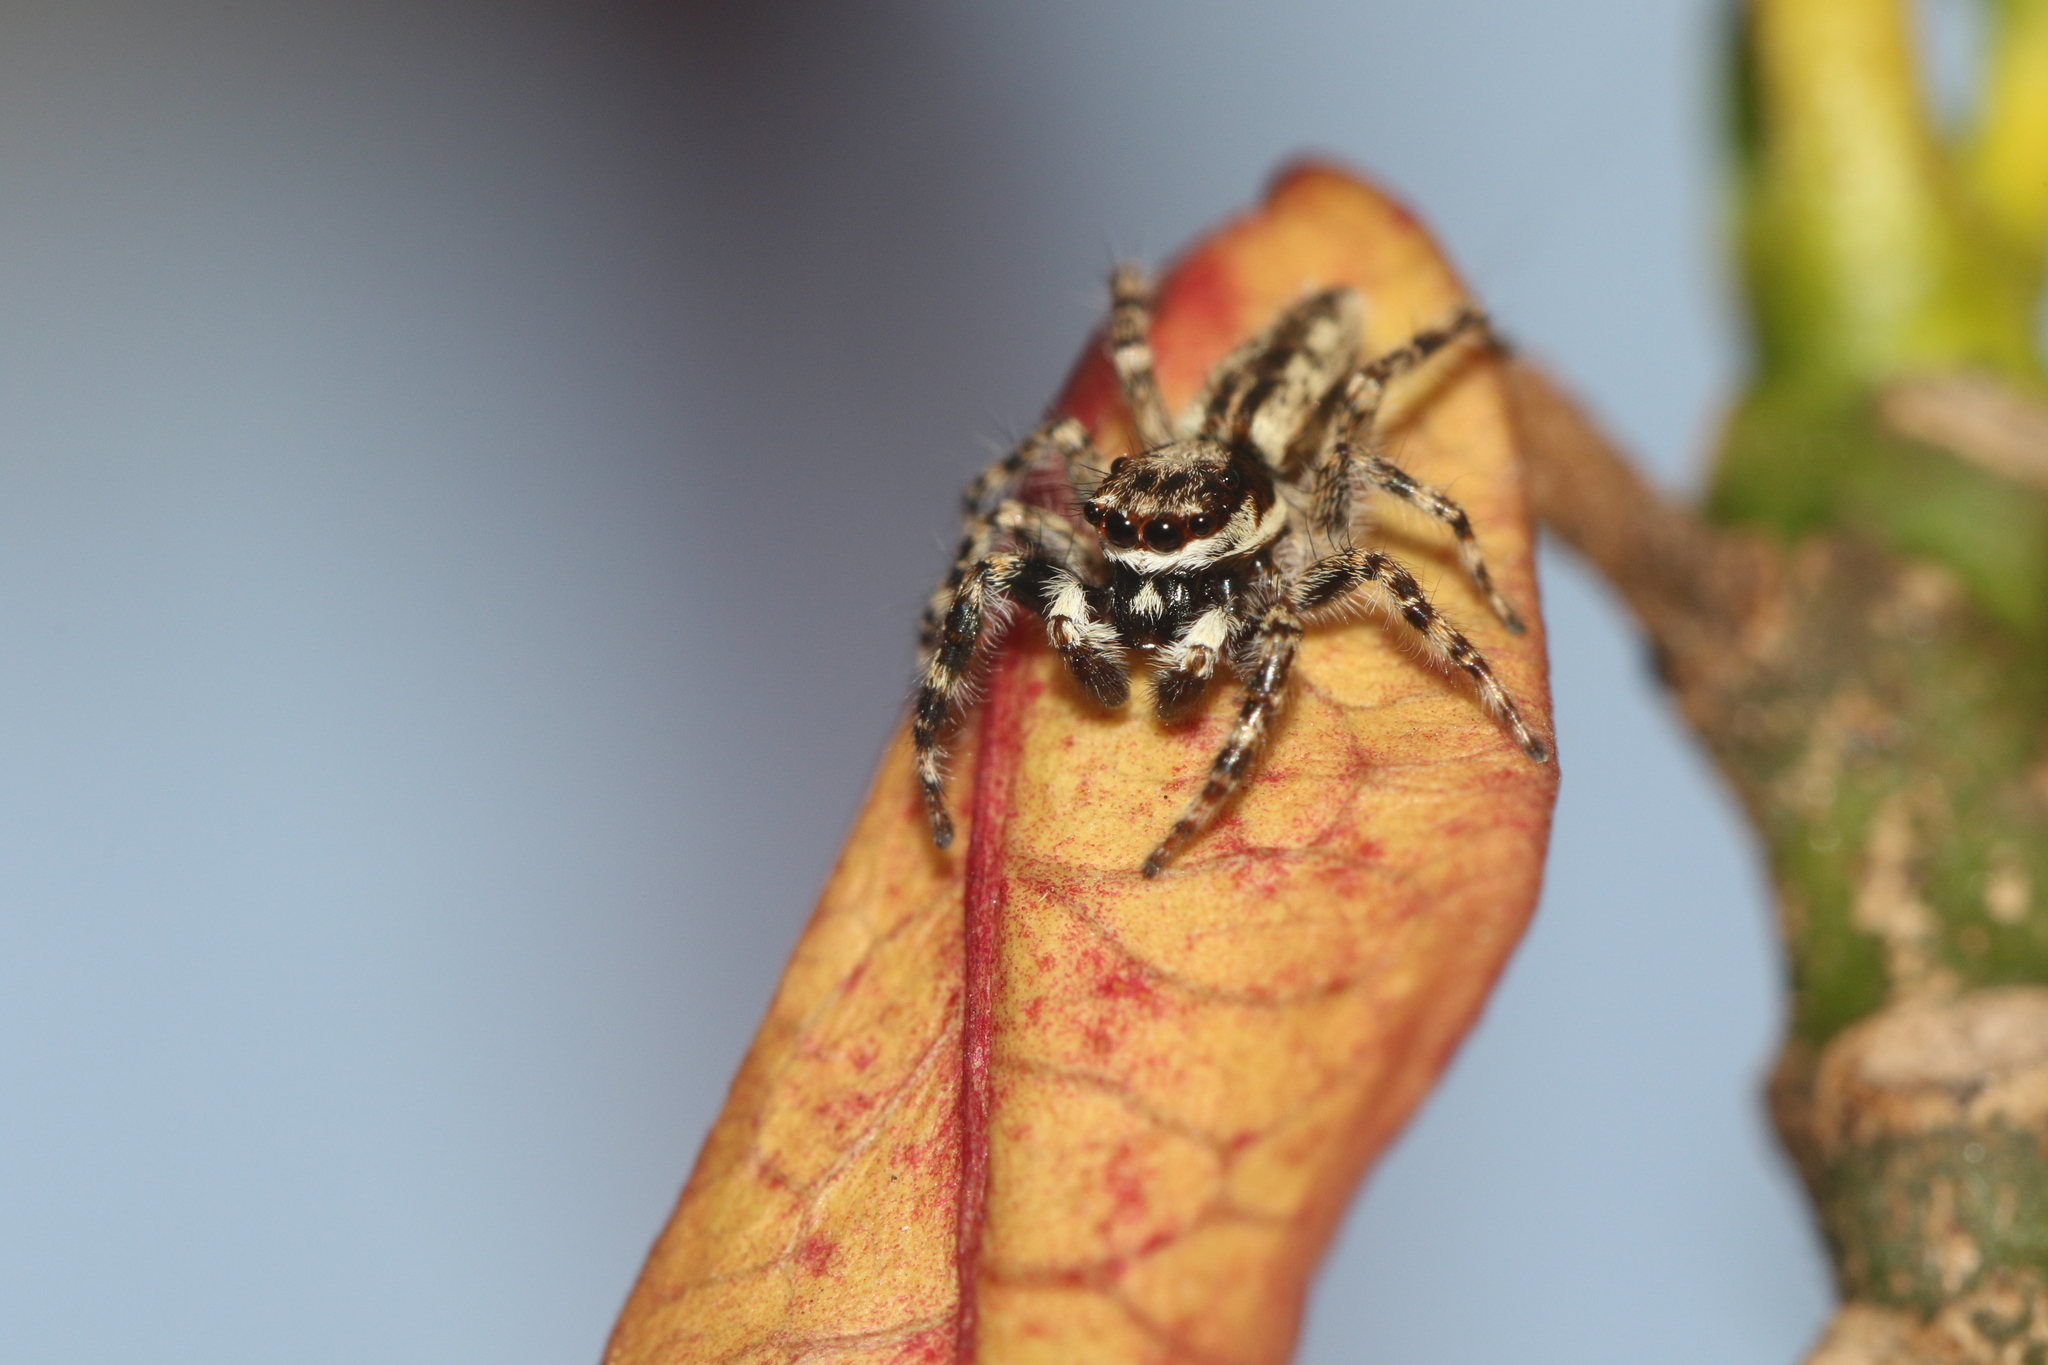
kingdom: Animalia
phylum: Arthropoda
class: Arachnida
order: Araneae
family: Salticidae
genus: Menemerus
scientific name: Menemerus bivittatus
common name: Gray wall jumper
